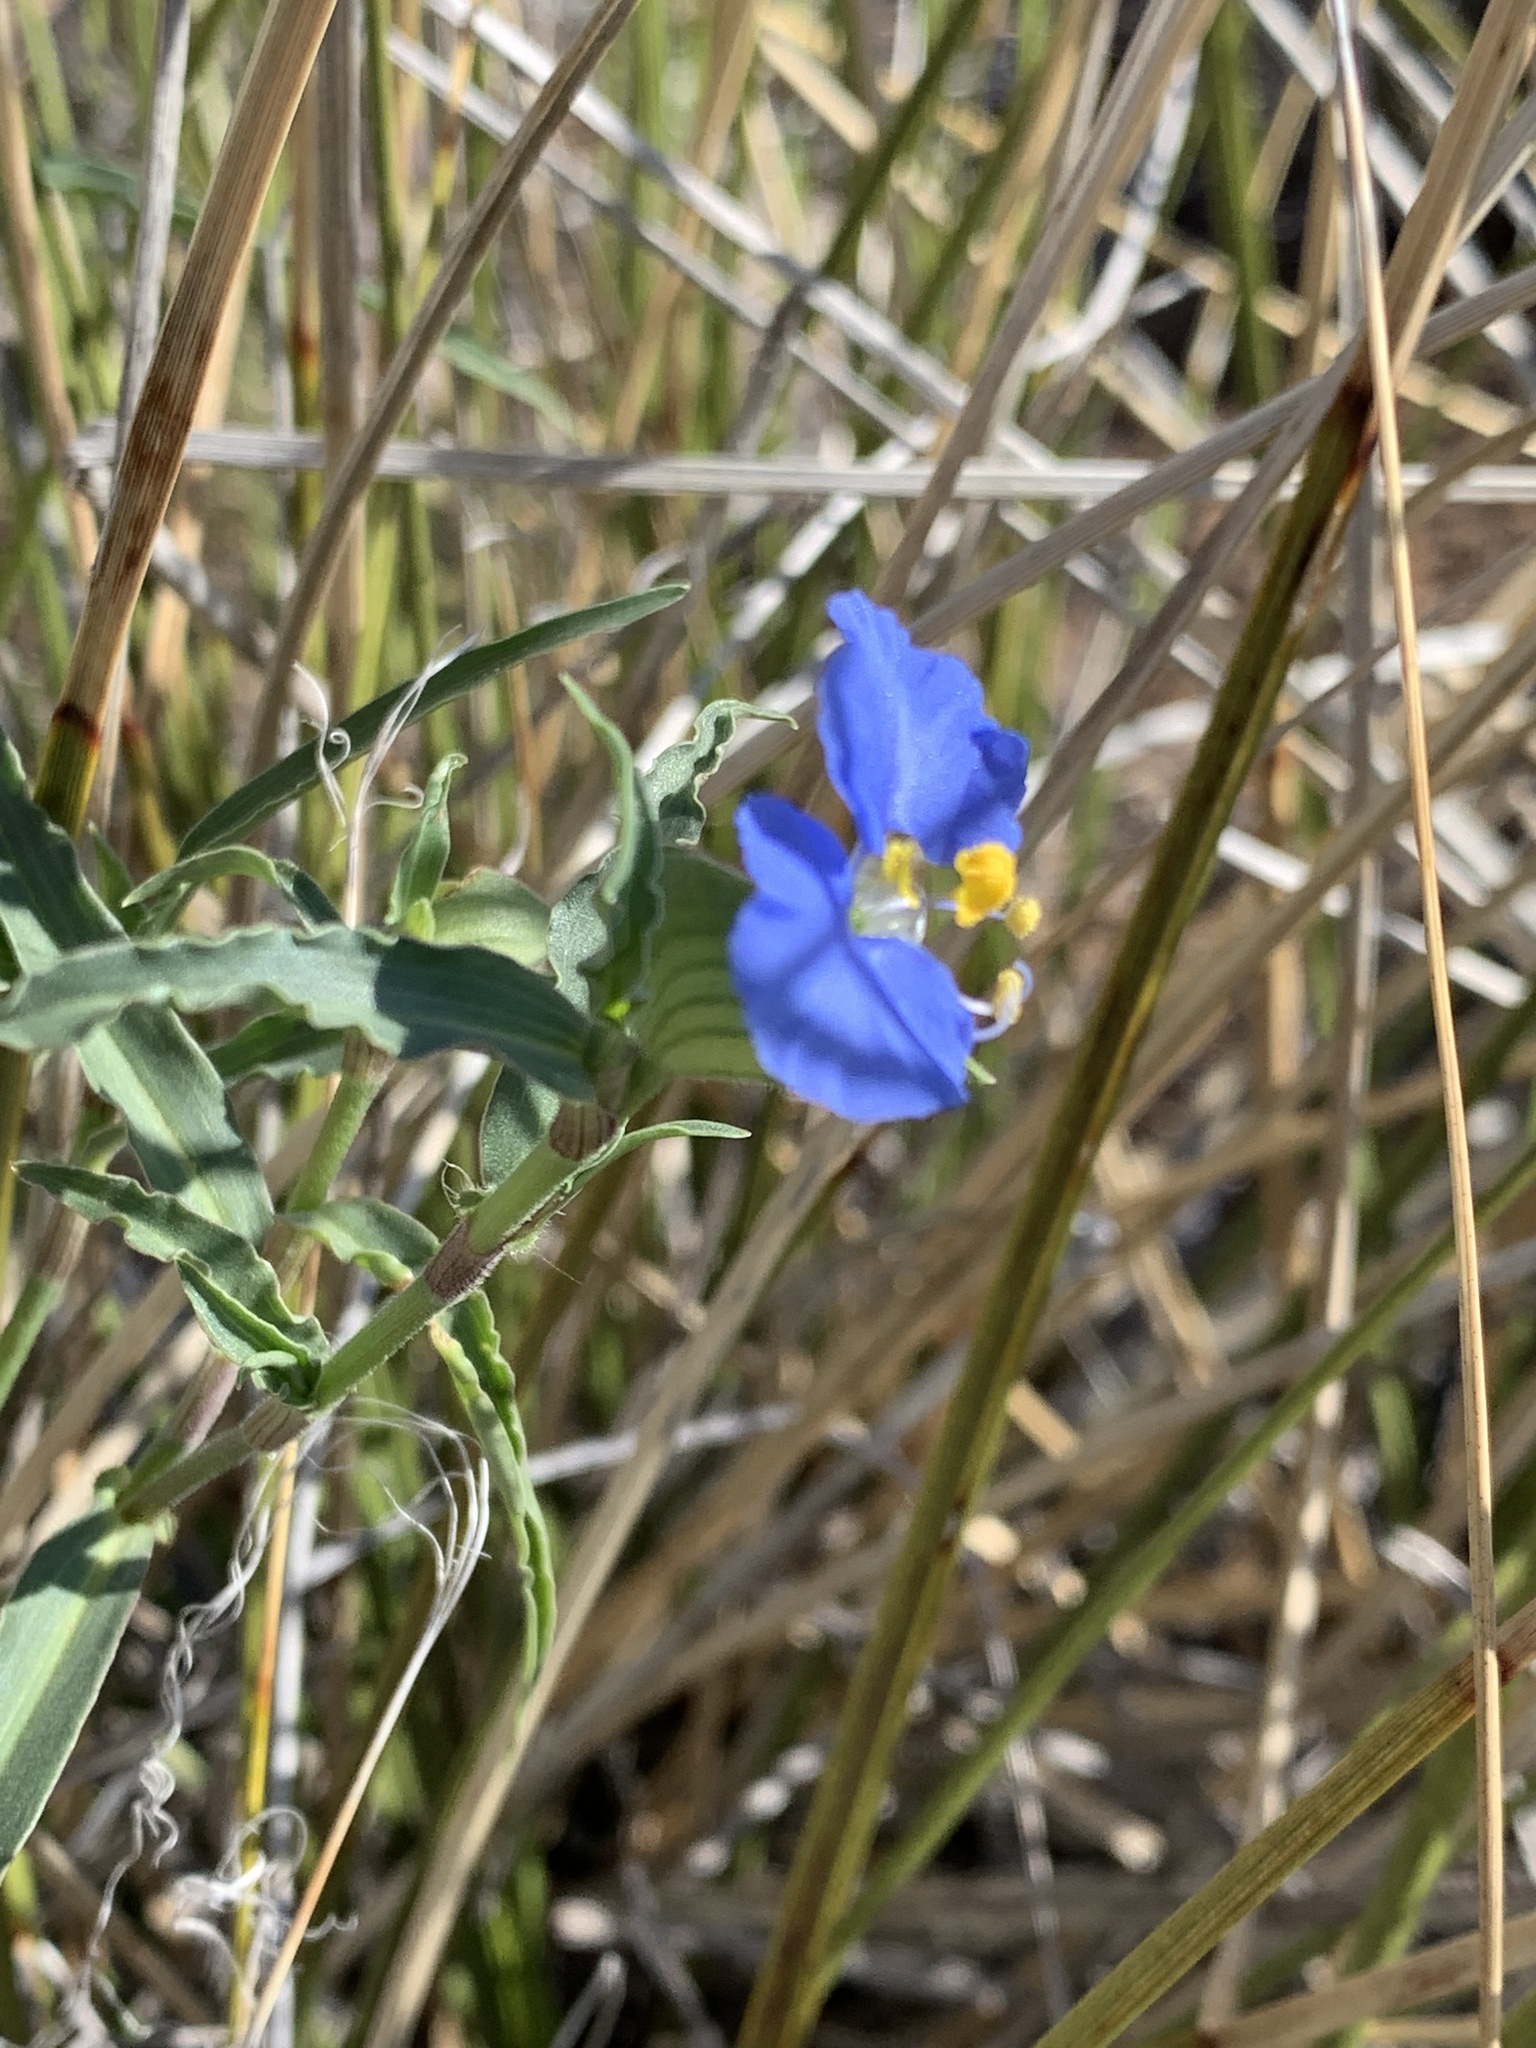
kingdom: Plantae
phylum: Tracheophyta
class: Liliopsida
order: Commelinales
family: Commelinaceae
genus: Commelina
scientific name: Commelina erecta
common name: Blousel blommetjie
